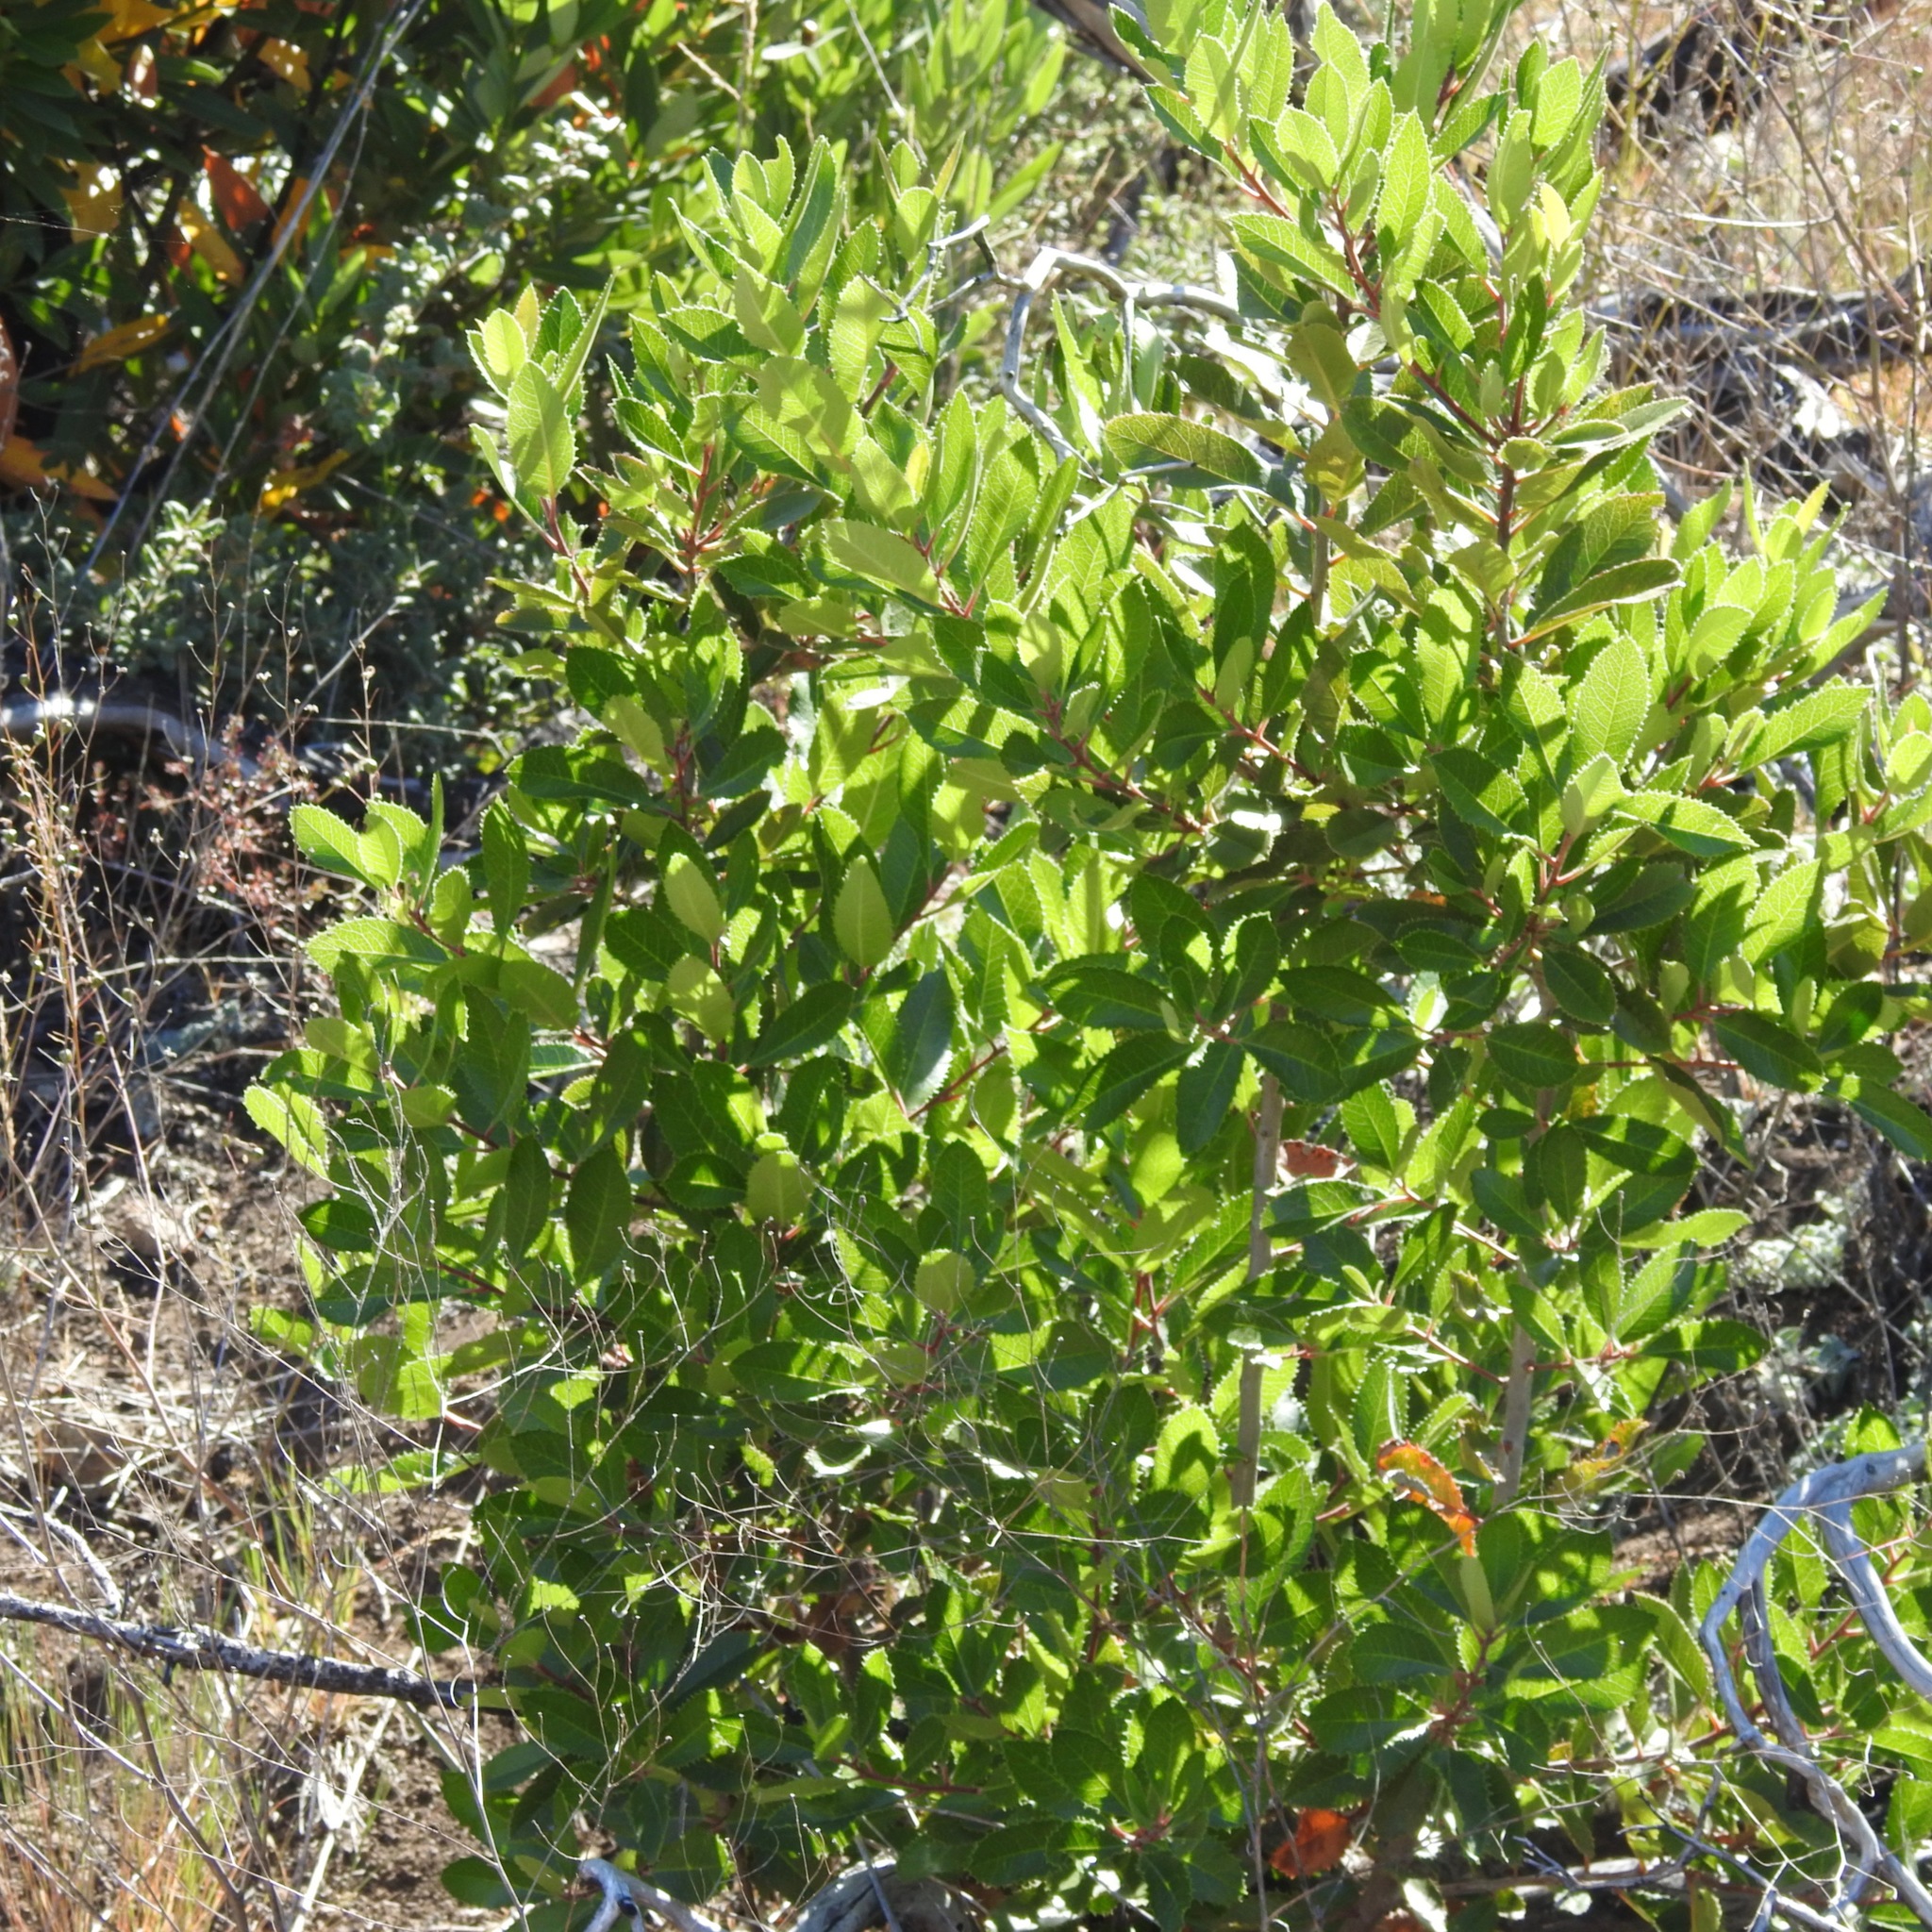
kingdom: Plantae
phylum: Tracheophyta
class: Magnoliopsida
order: Rosales
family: Rosaceae
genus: Heteromeles
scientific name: Heteromeles arbutifolia
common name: California-holly
